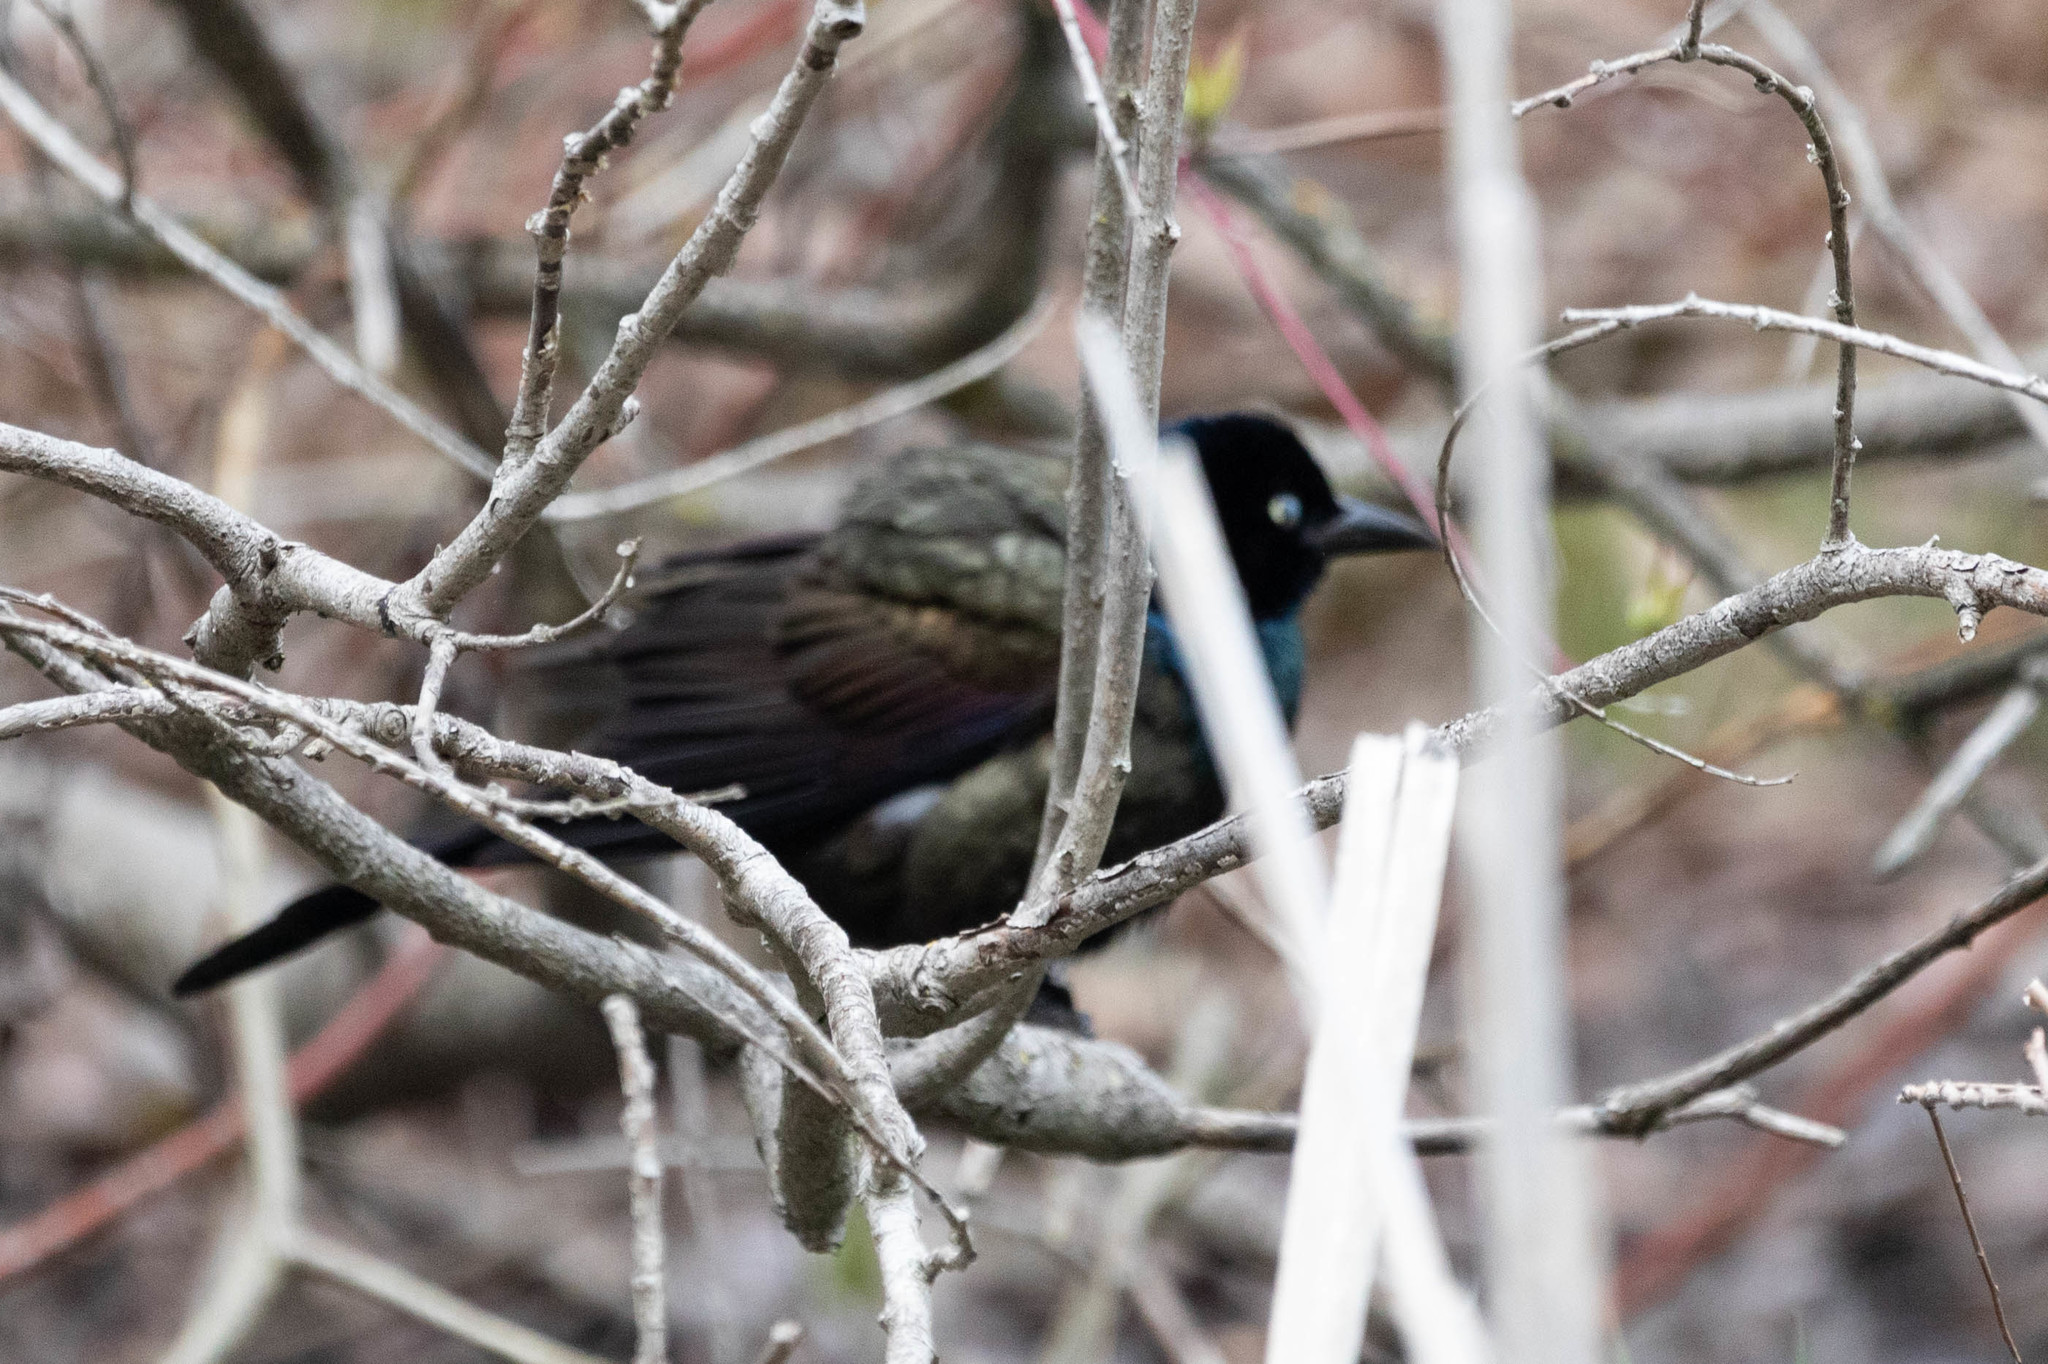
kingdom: Animalia
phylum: Chordata
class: Aves
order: Passeriformes
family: Icteridae
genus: Quiscalus
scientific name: Quiscalus quiscula
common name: Common grackle
